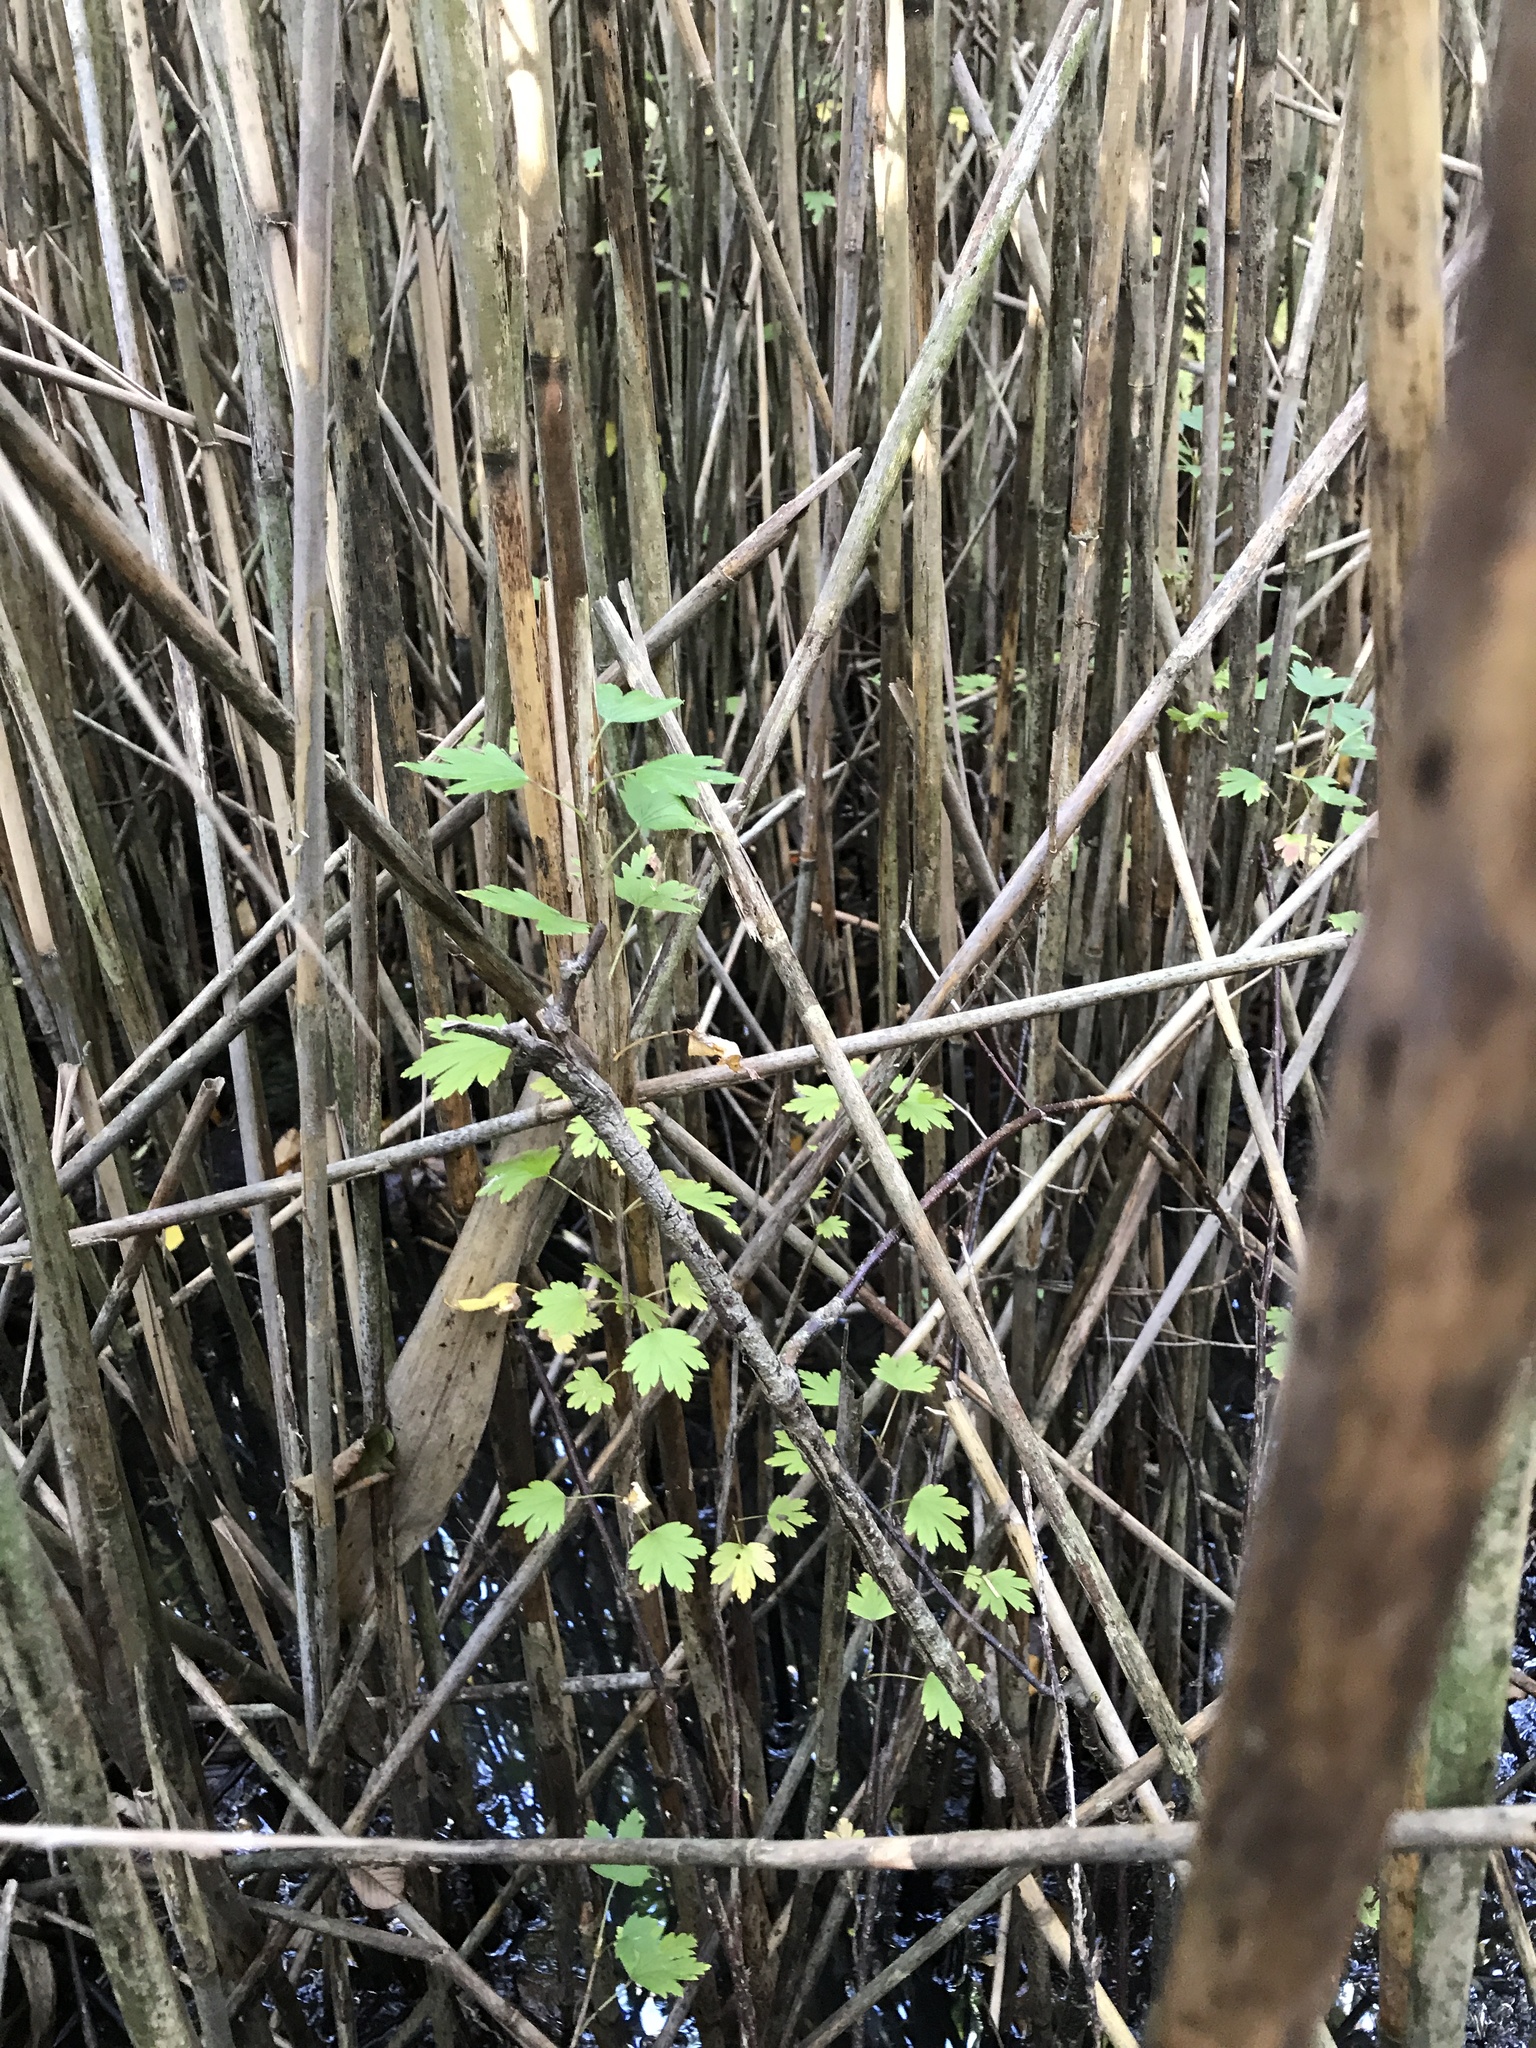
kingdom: Plantae
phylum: Tracheophyta
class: Magnoliopsida
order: Saxifragales
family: Grossulariaceae
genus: Ribes
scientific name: Ribes hirtellum
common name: Hairy gooseberry
